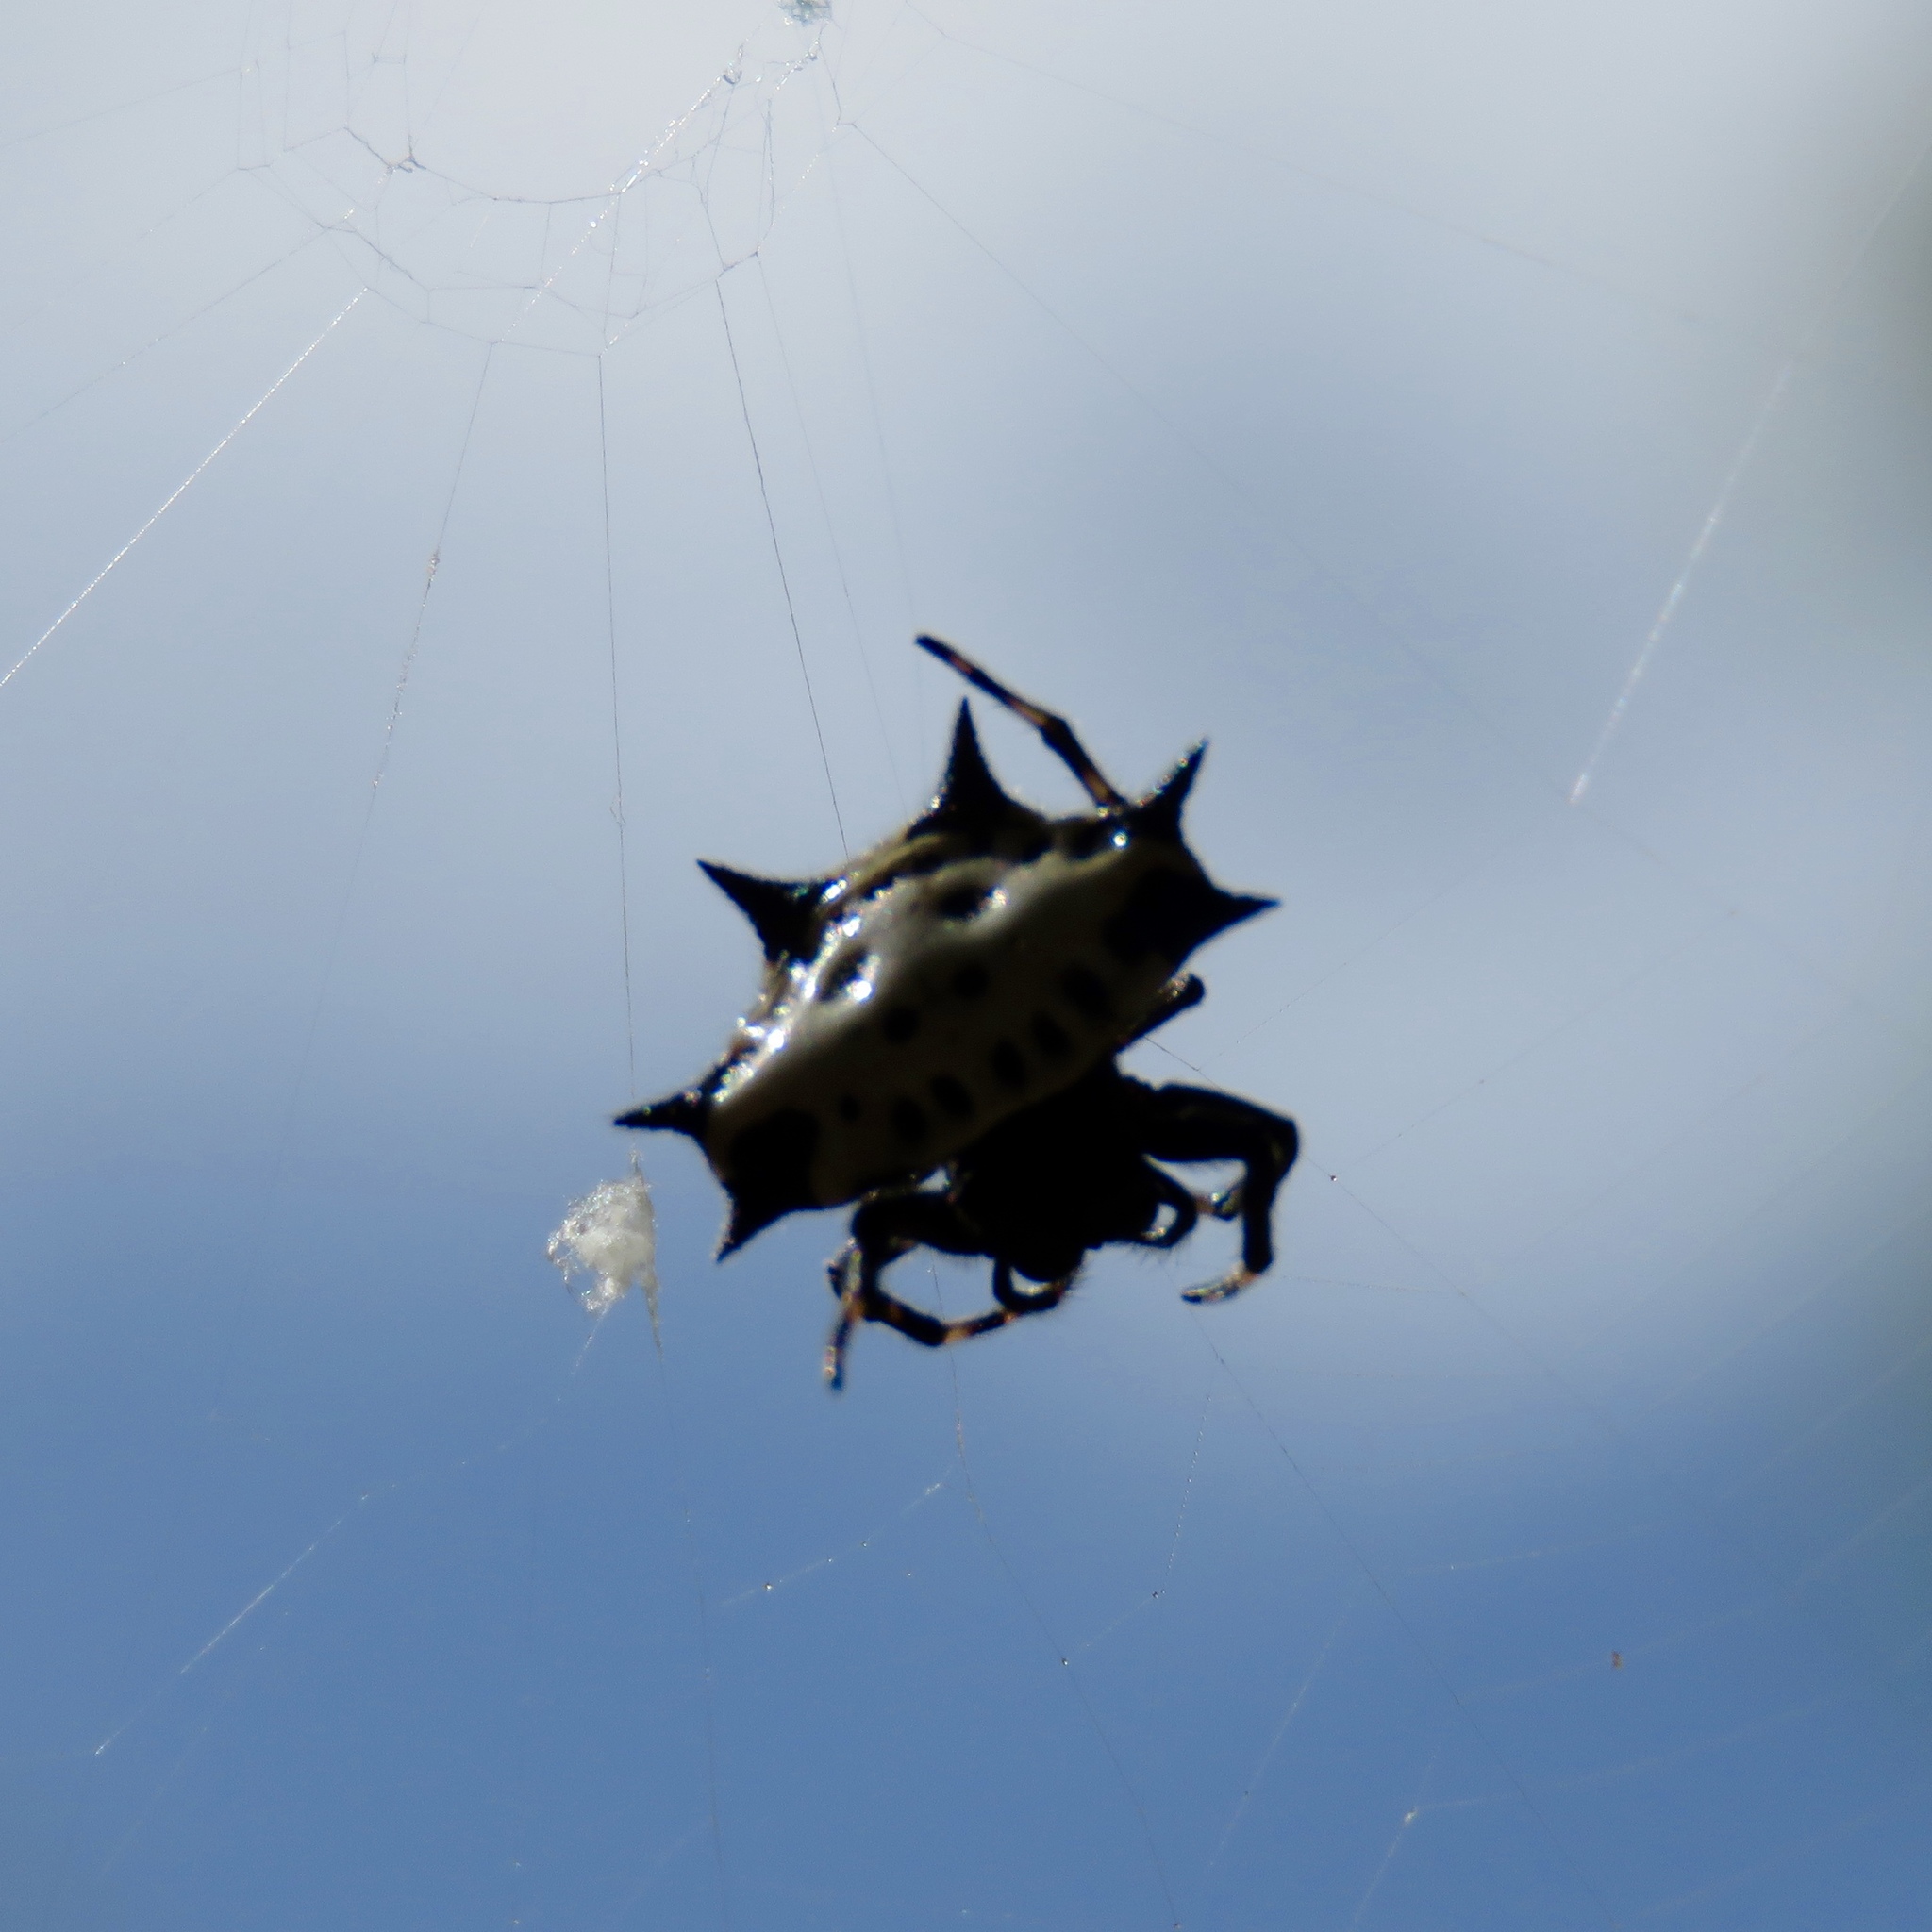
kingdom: Animalia
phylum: Arthropoda
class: Arachnida
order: Araneae
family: Araneidae
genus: Gasteracantha
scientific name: Gasteracantha cancriformis
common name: Orb weavers
